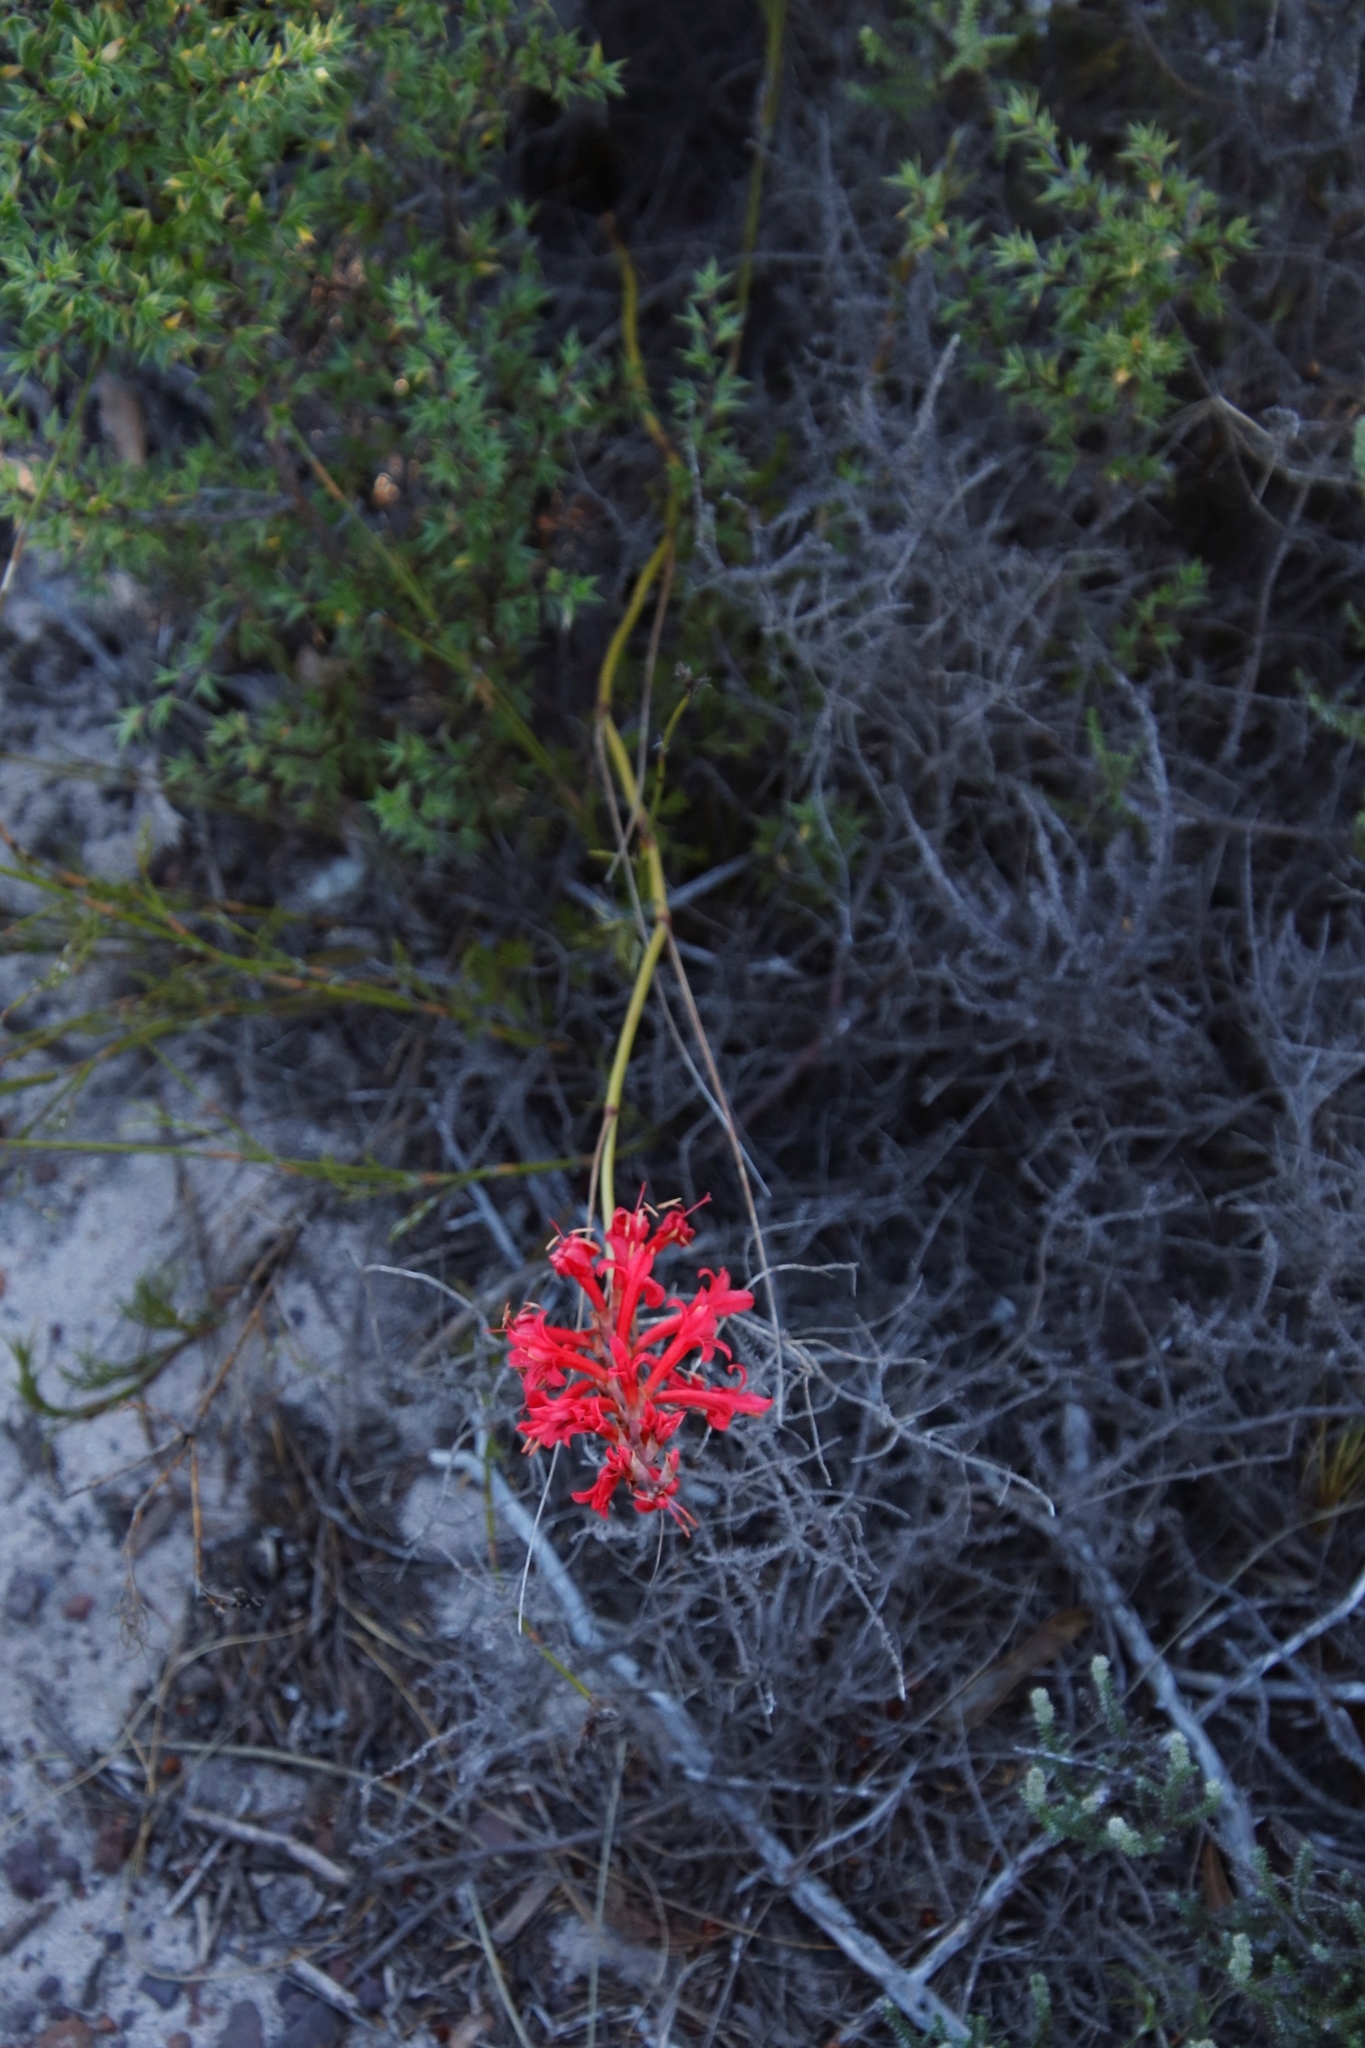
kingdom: Plantae
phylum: Tracheophyta
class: Liliopsida
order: Asparagales
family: Iridaceae
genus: Tritoniopsis
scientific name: Tritoniopsis triticea
